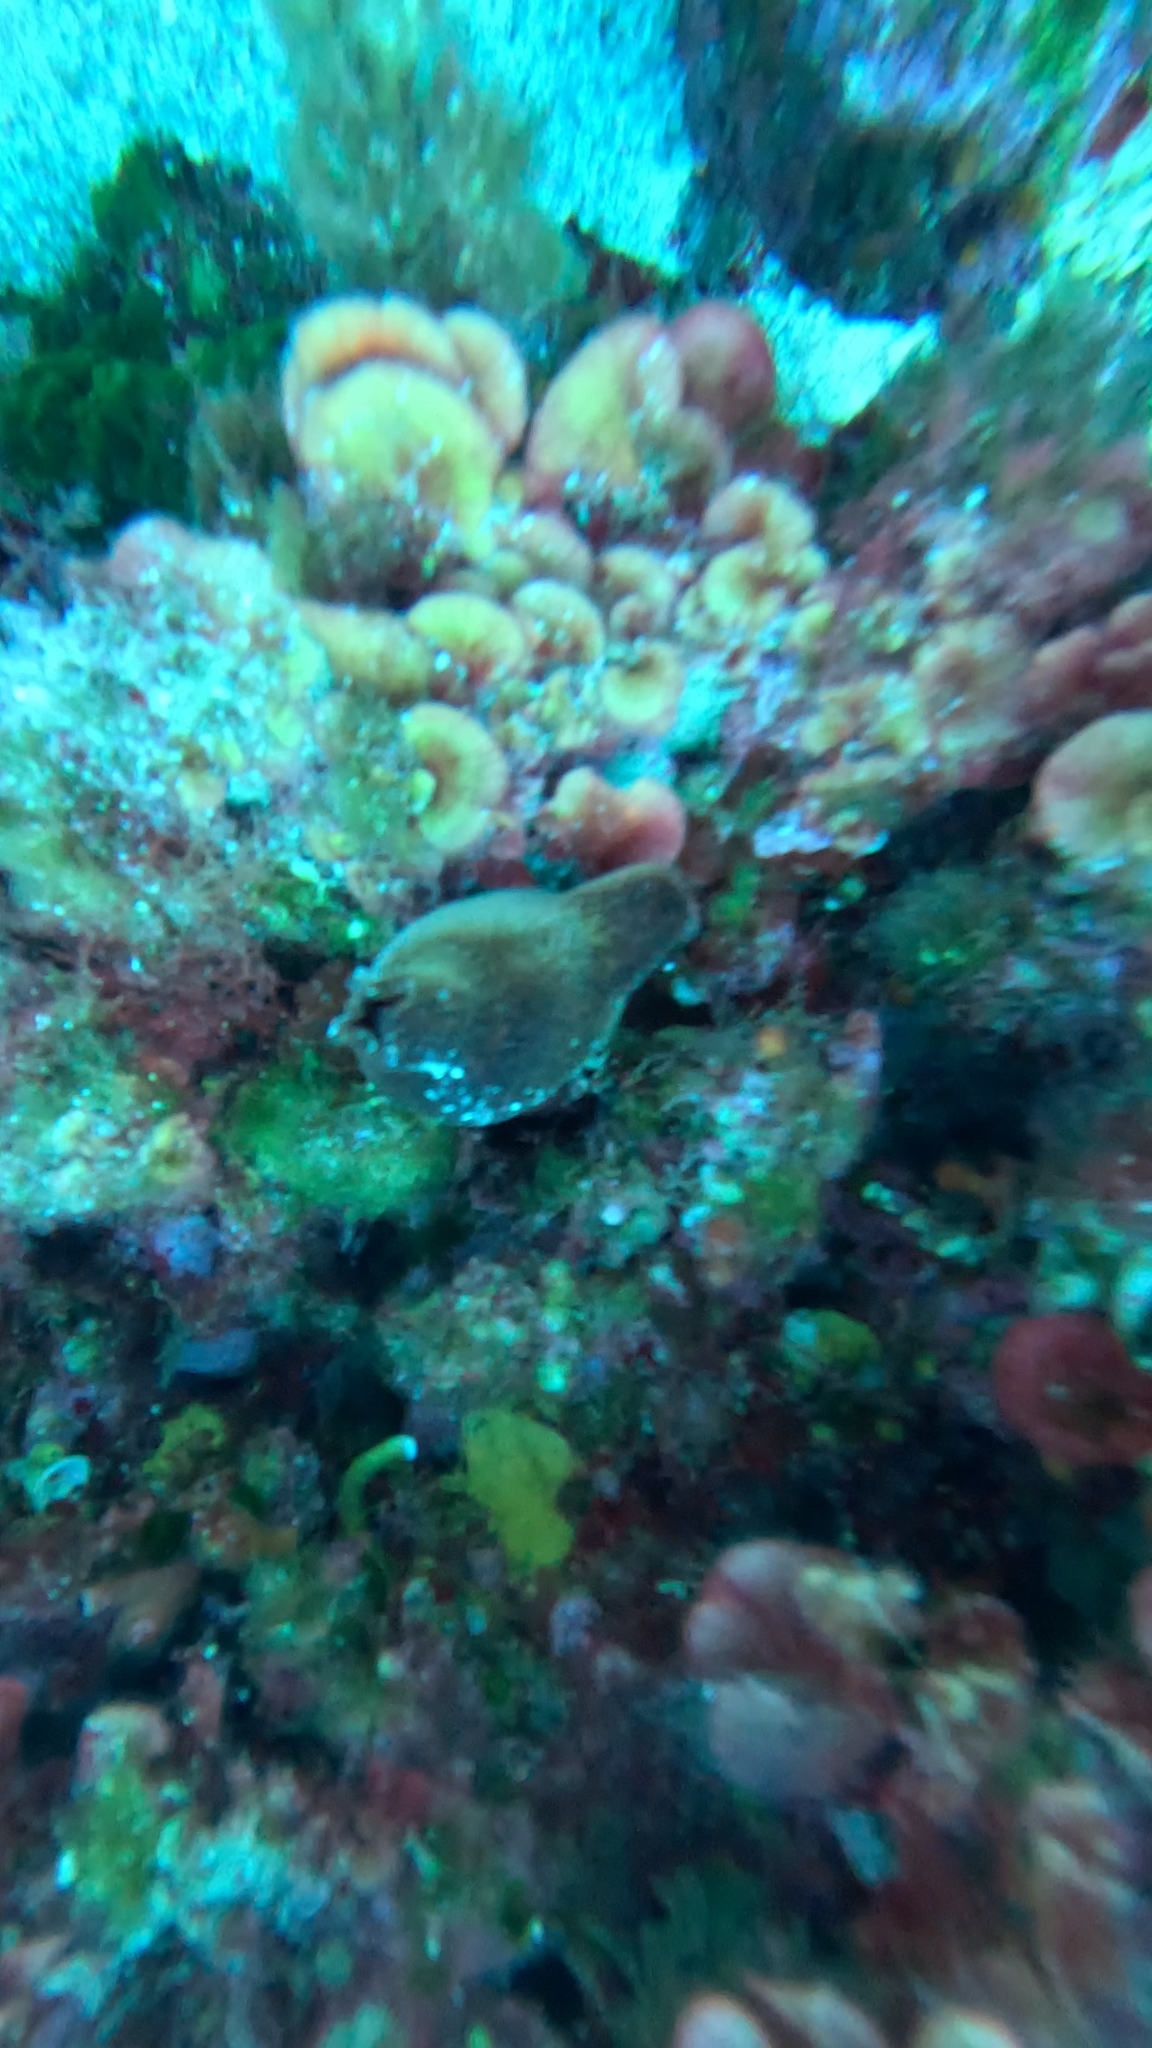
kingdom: Animalia
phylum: Chordata
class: Ascidiacea
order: Stolidobranchia
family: Pyuridae
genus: Halocynthia
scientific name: Halocynthia papillosa
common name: Red sea-squirt
